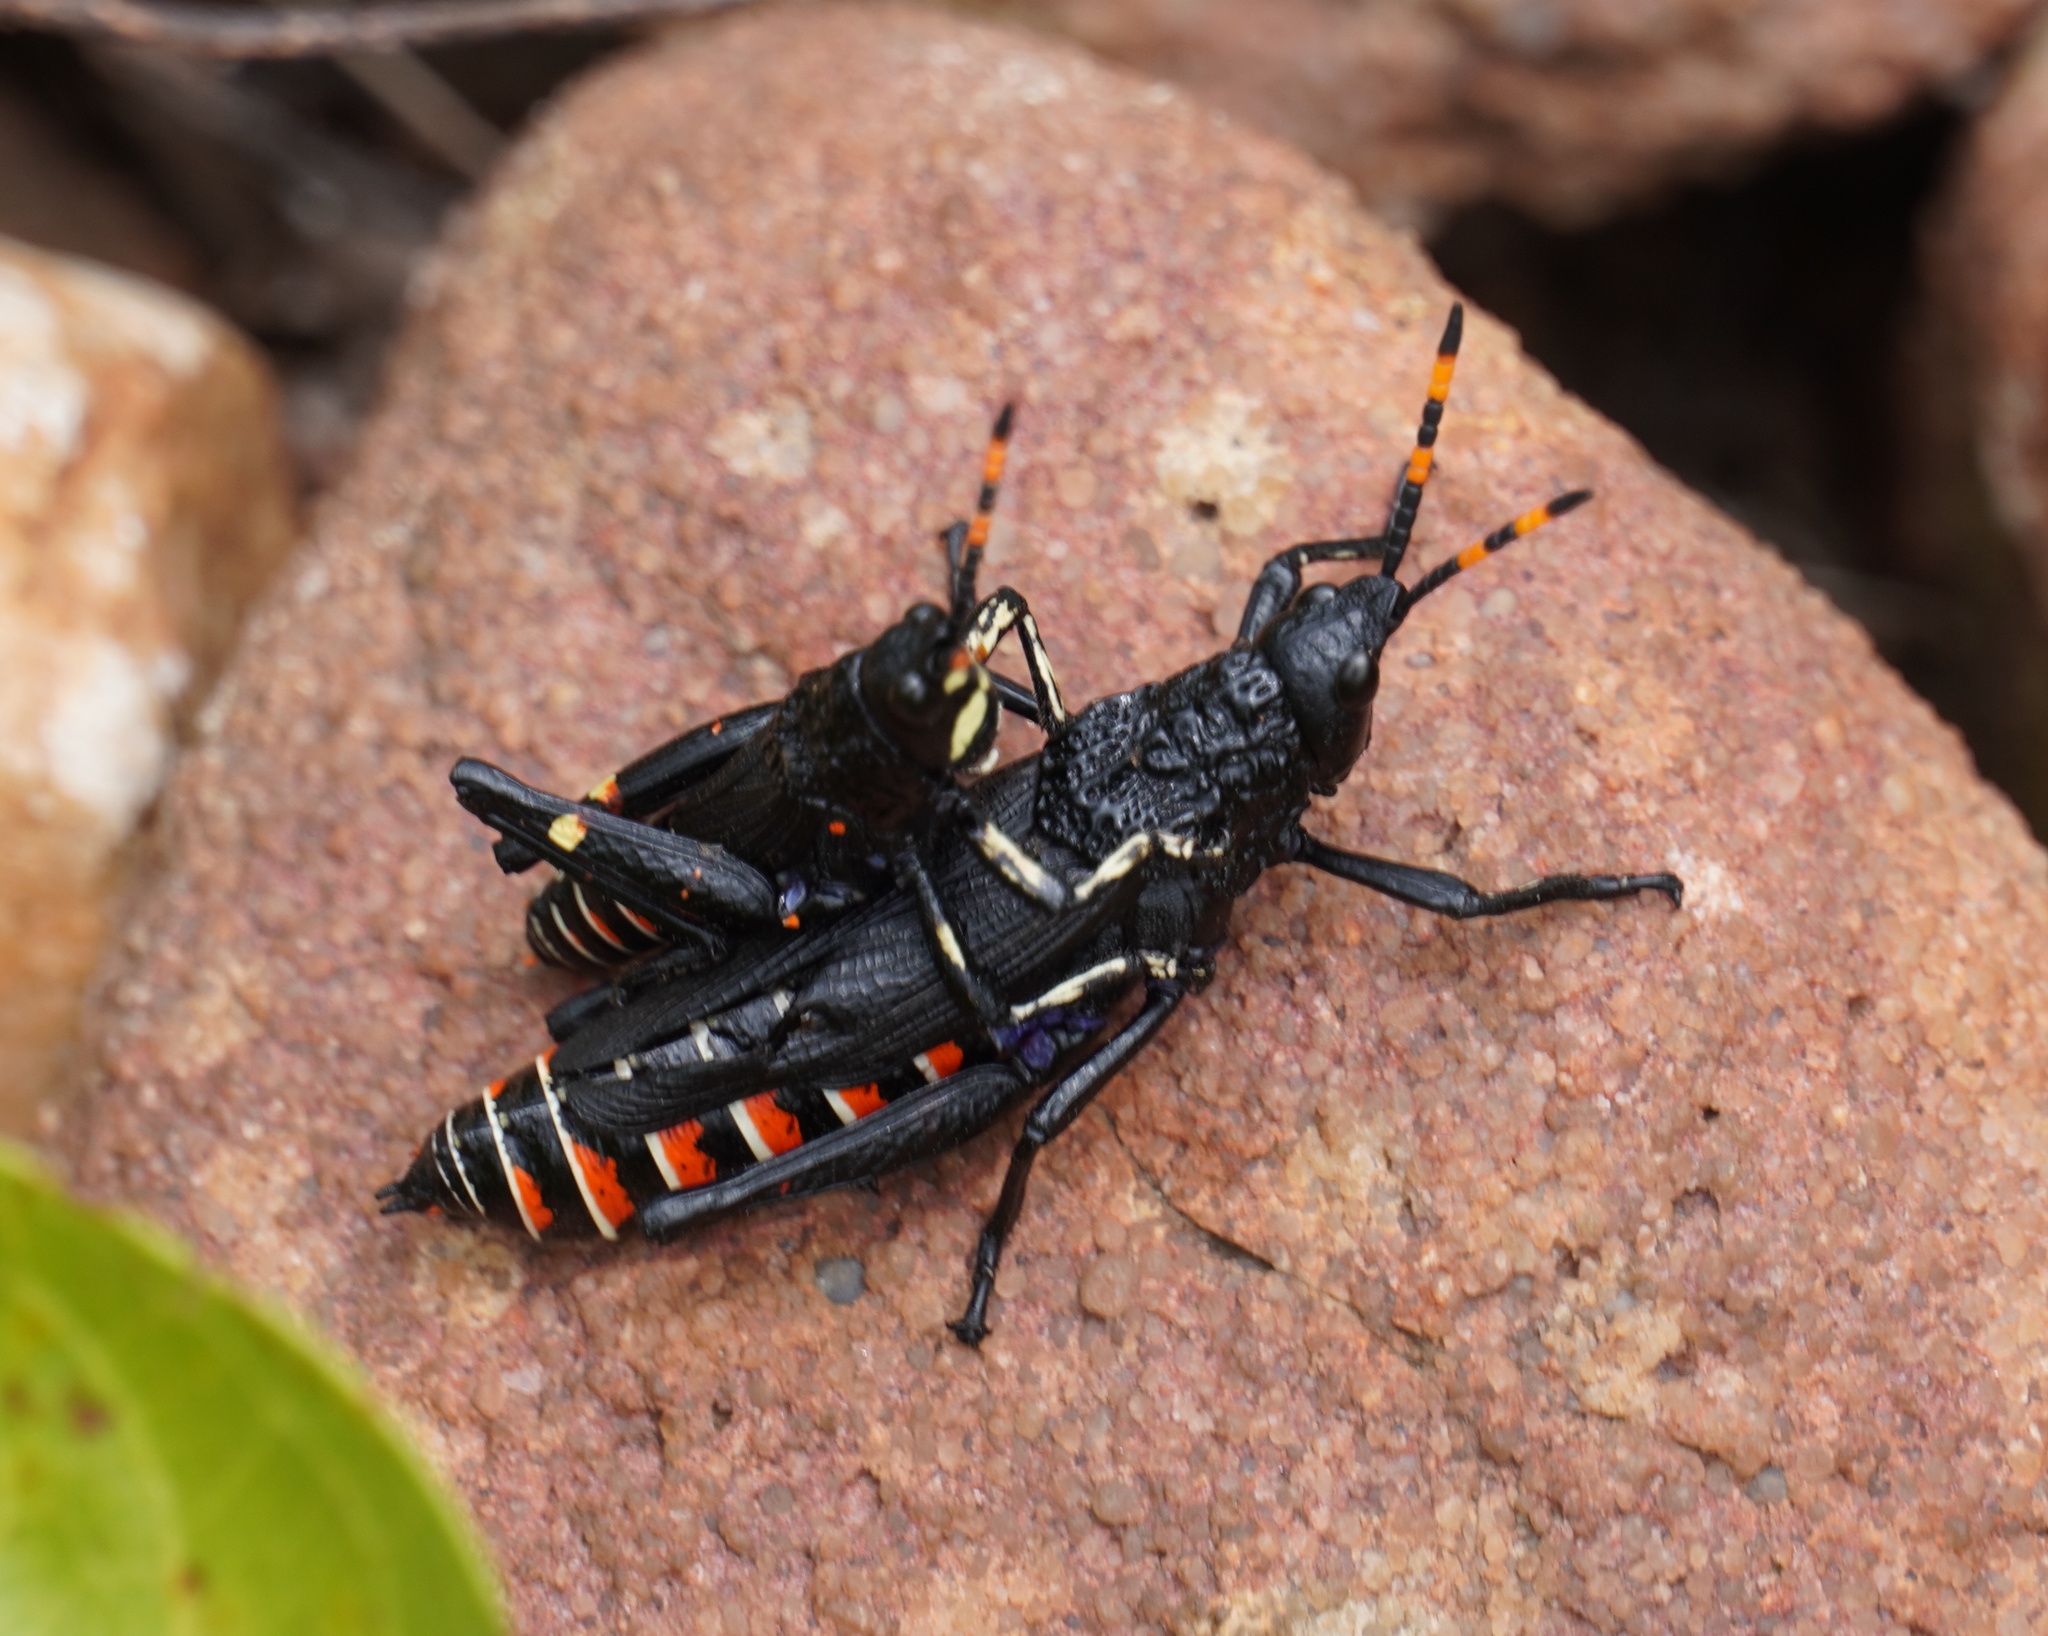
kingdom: Animalia
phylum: Arthropoda
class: Insecta
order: Orthoptera
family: Pyrgomorphidae
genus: Maura
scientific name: Maura rubroornata
